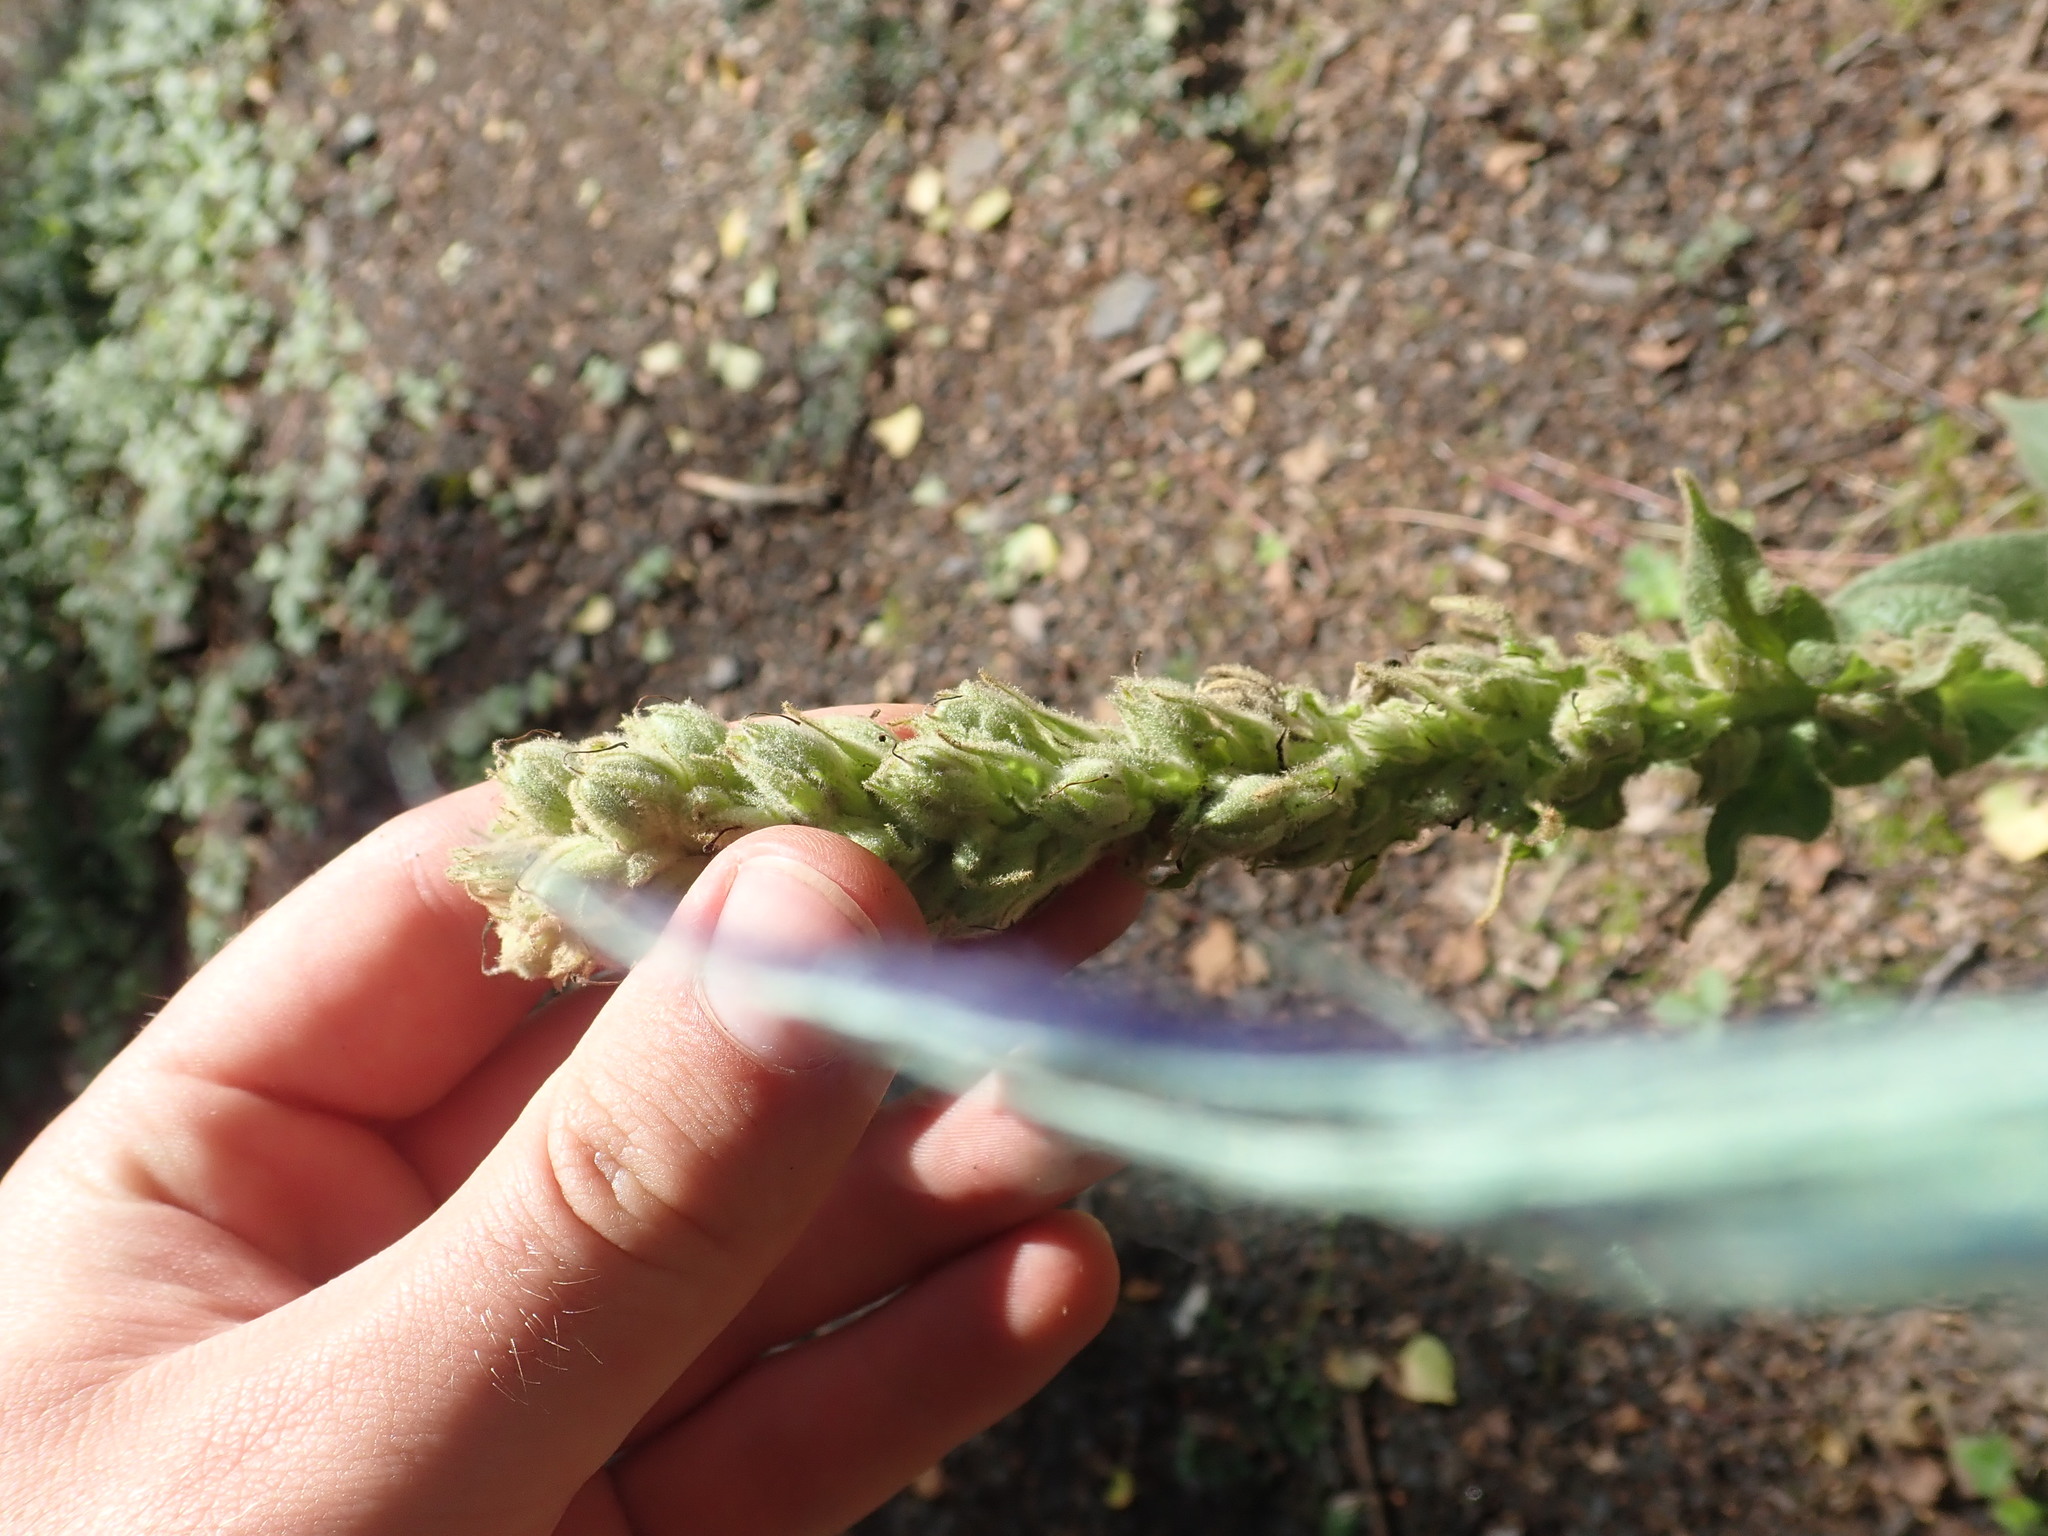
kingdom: Plantae
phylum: Tracheophyta
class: Magnoliopsida
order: Lamiales
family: Scrophulariaceae
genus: Verbascum
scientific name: Verbascum thapsus
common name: Common mullein
